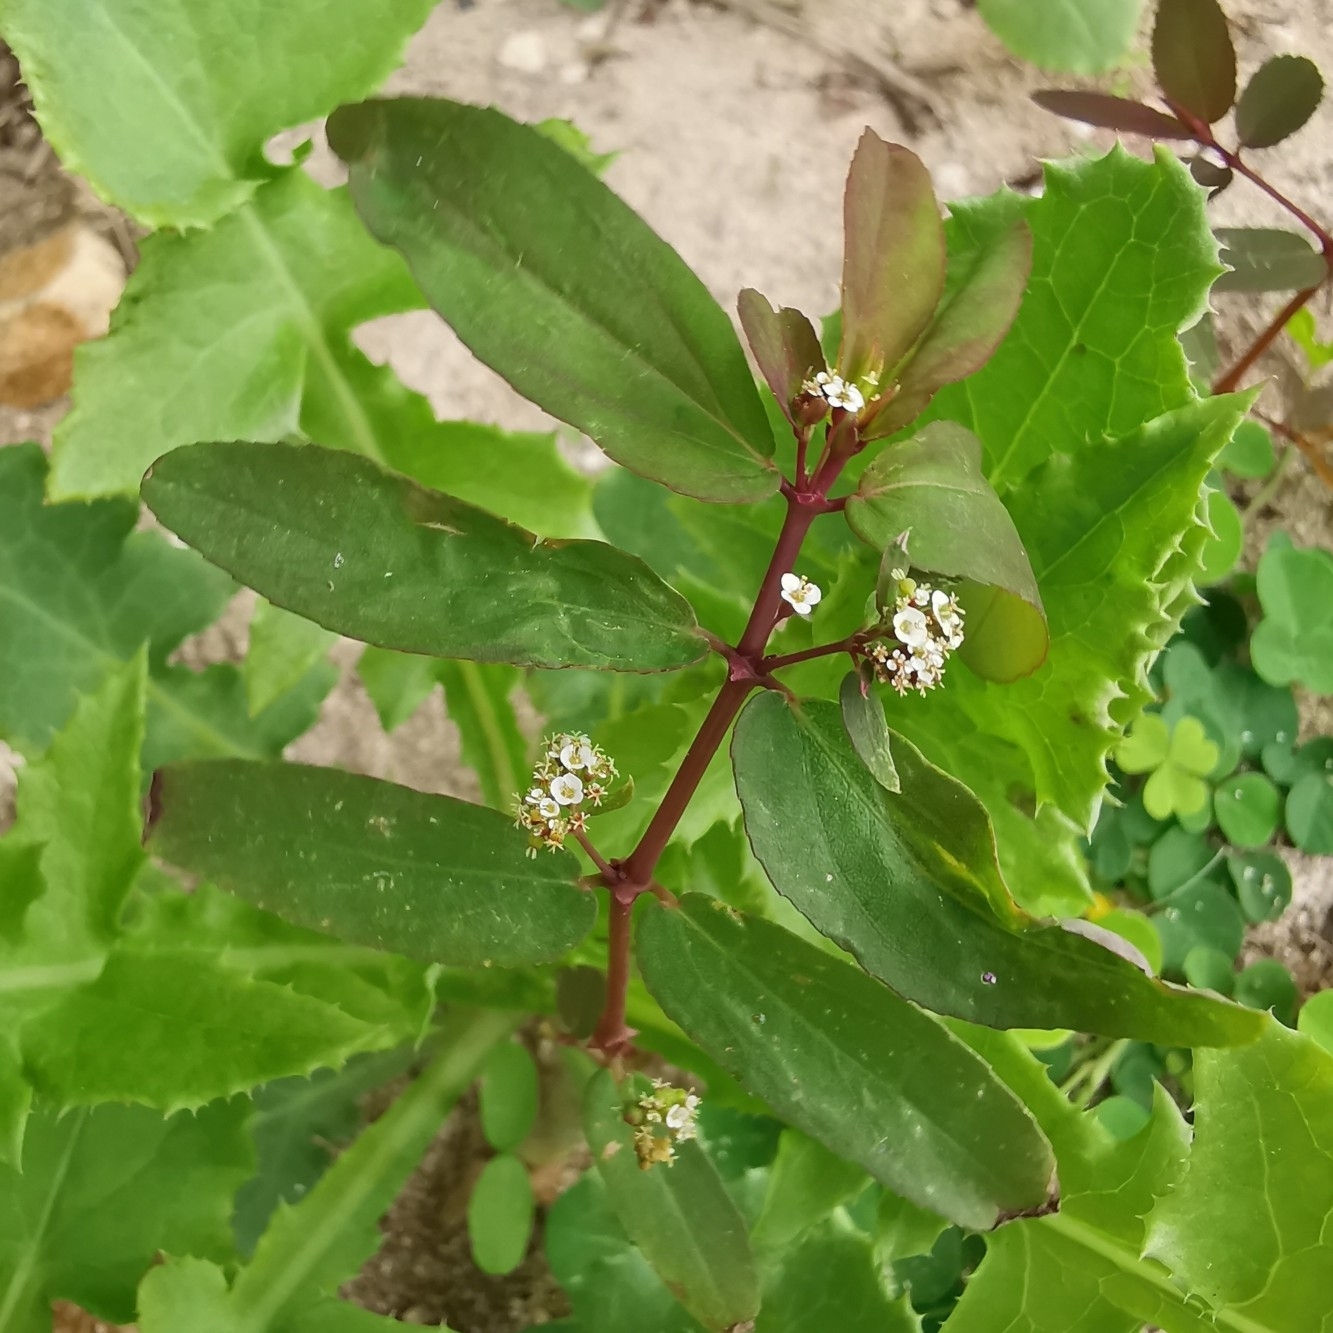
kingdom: Plantae
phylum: Tracheophyta
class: Magnoliopsida
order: Malpighiales
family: Euphorbiaceae
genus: Euphorbia
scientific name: Euphorbia hypericifolia
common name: Graceful sandmat
